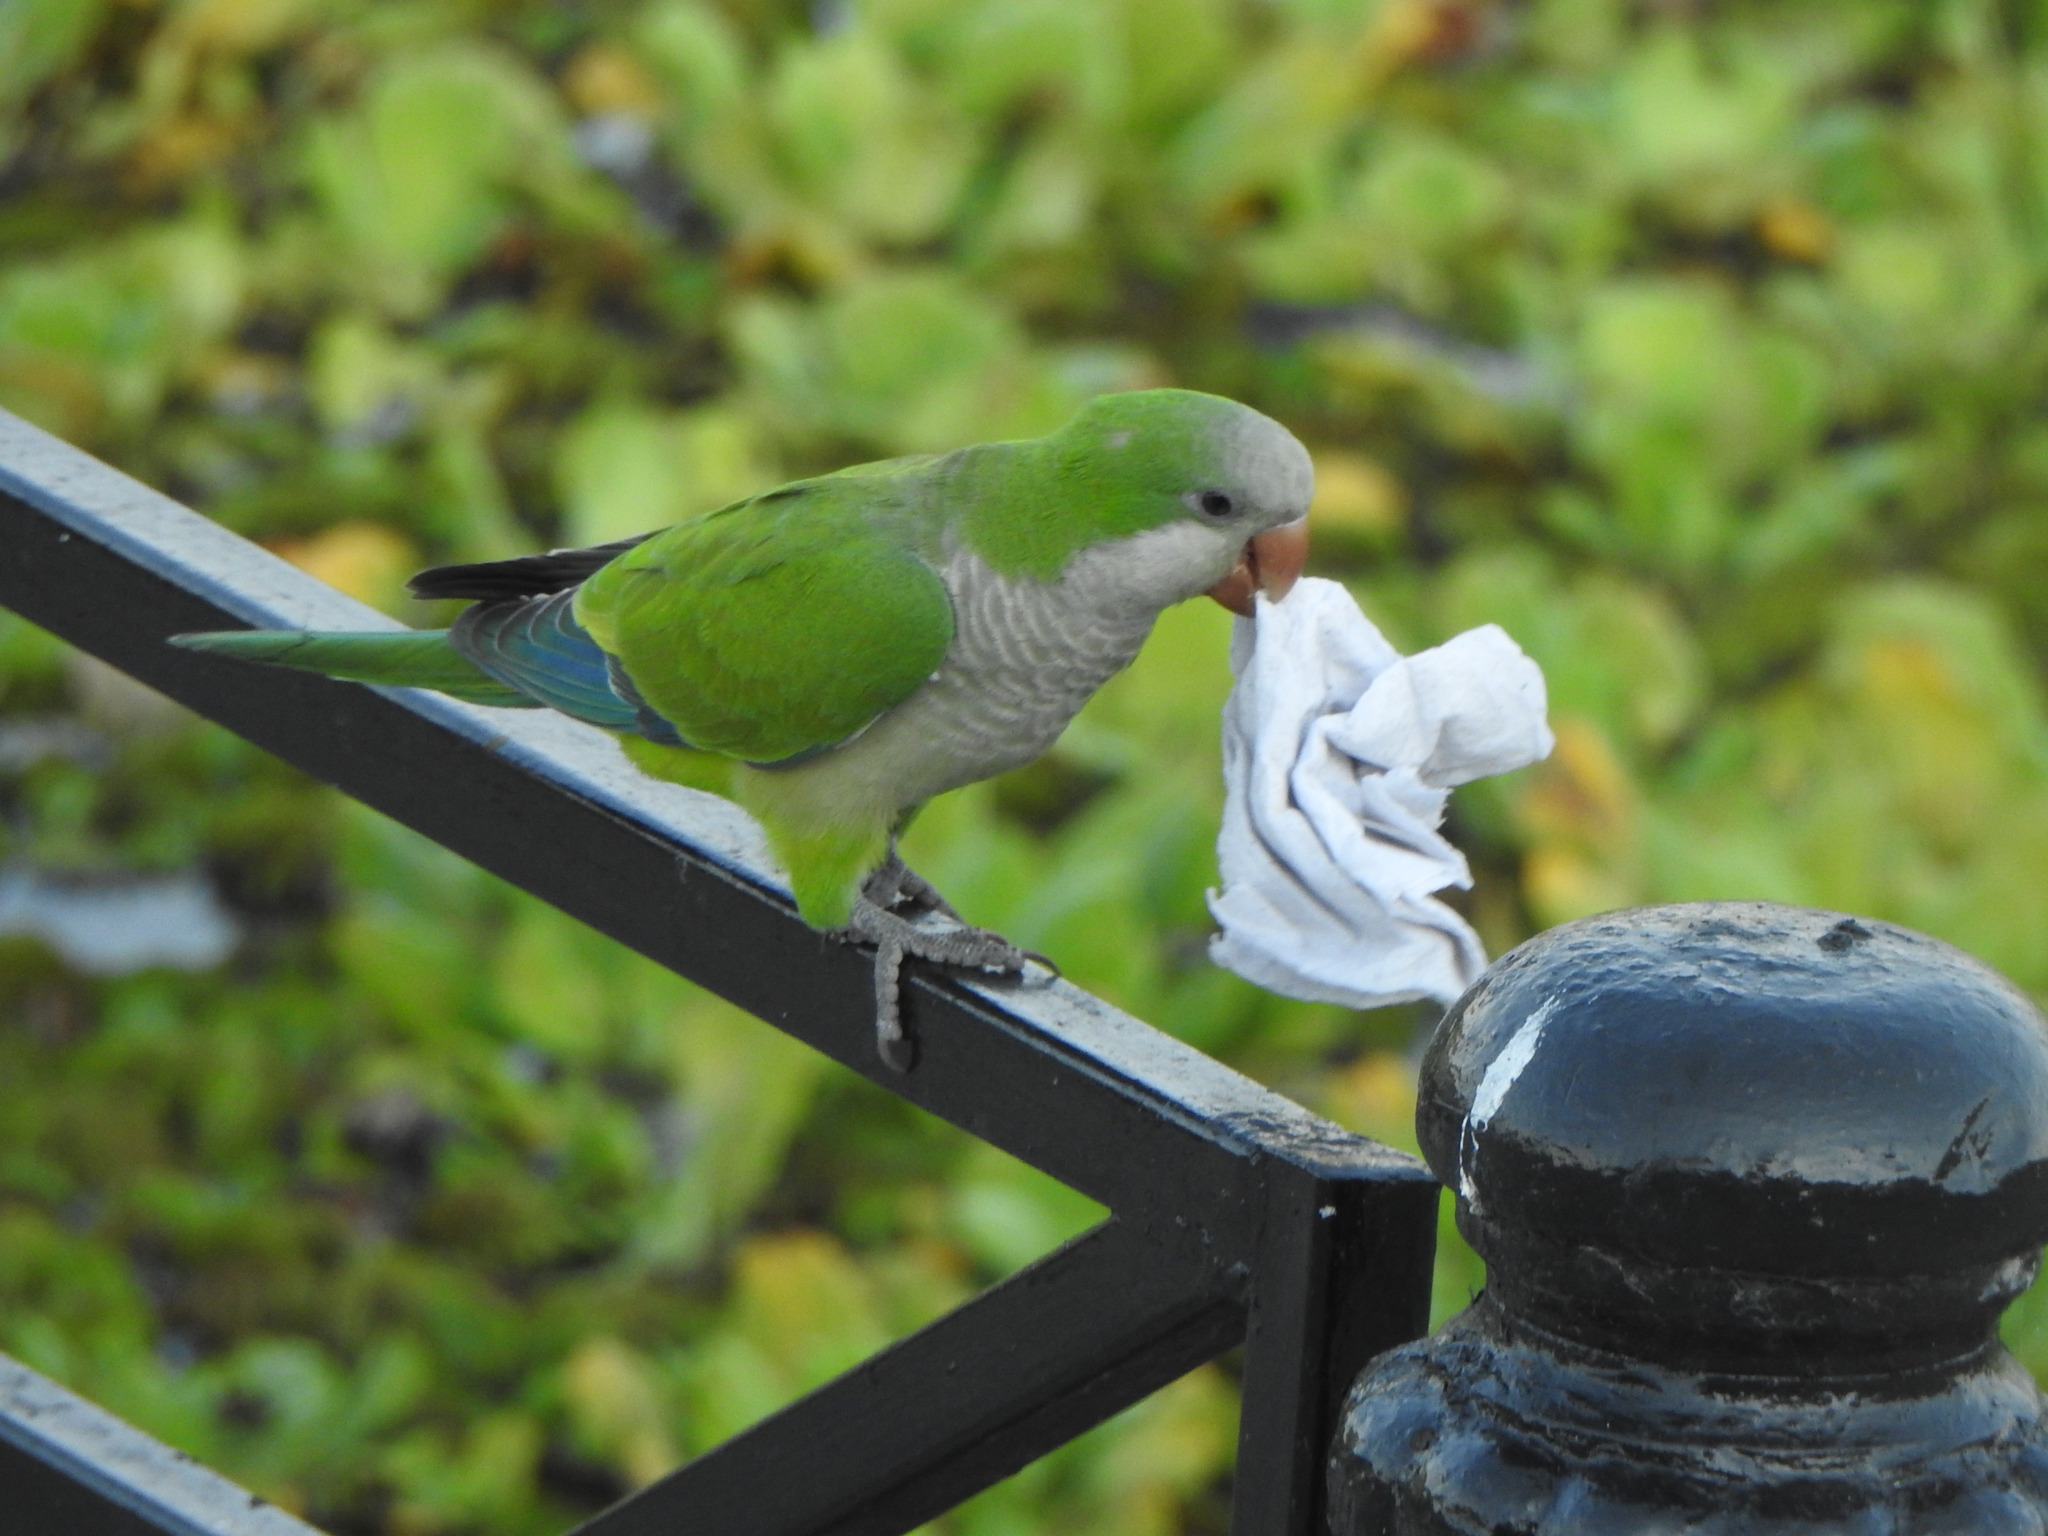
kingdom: Animalia
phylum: Chordata
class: Aves
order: Psittaciformes
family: Psittacidae
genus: Myiopsitta
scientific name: Myiopsitta monachus
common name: Monk parakeet
